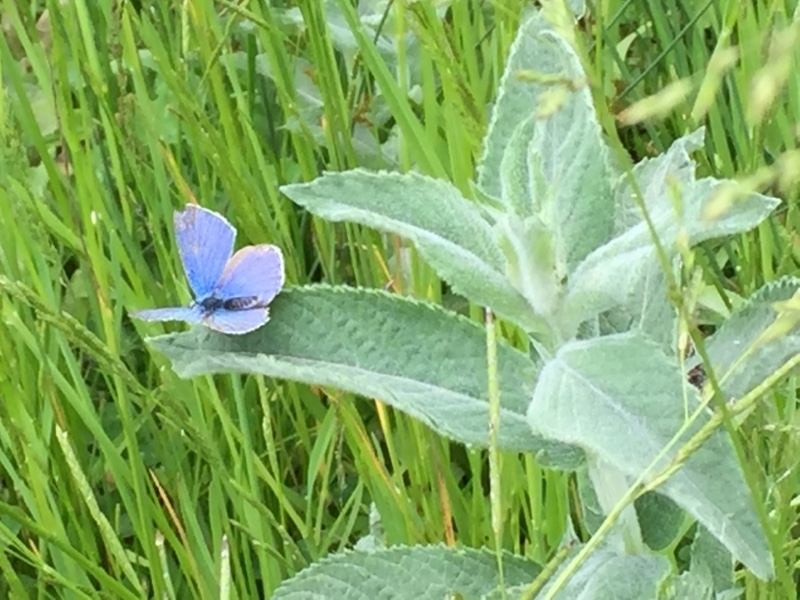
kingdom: Animalia
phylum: Arthropoda
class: Insecta
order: Lepidoptera
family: Lycaenidae
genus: Polyommatus
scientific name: Polyommatus icarus
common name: Common blue
